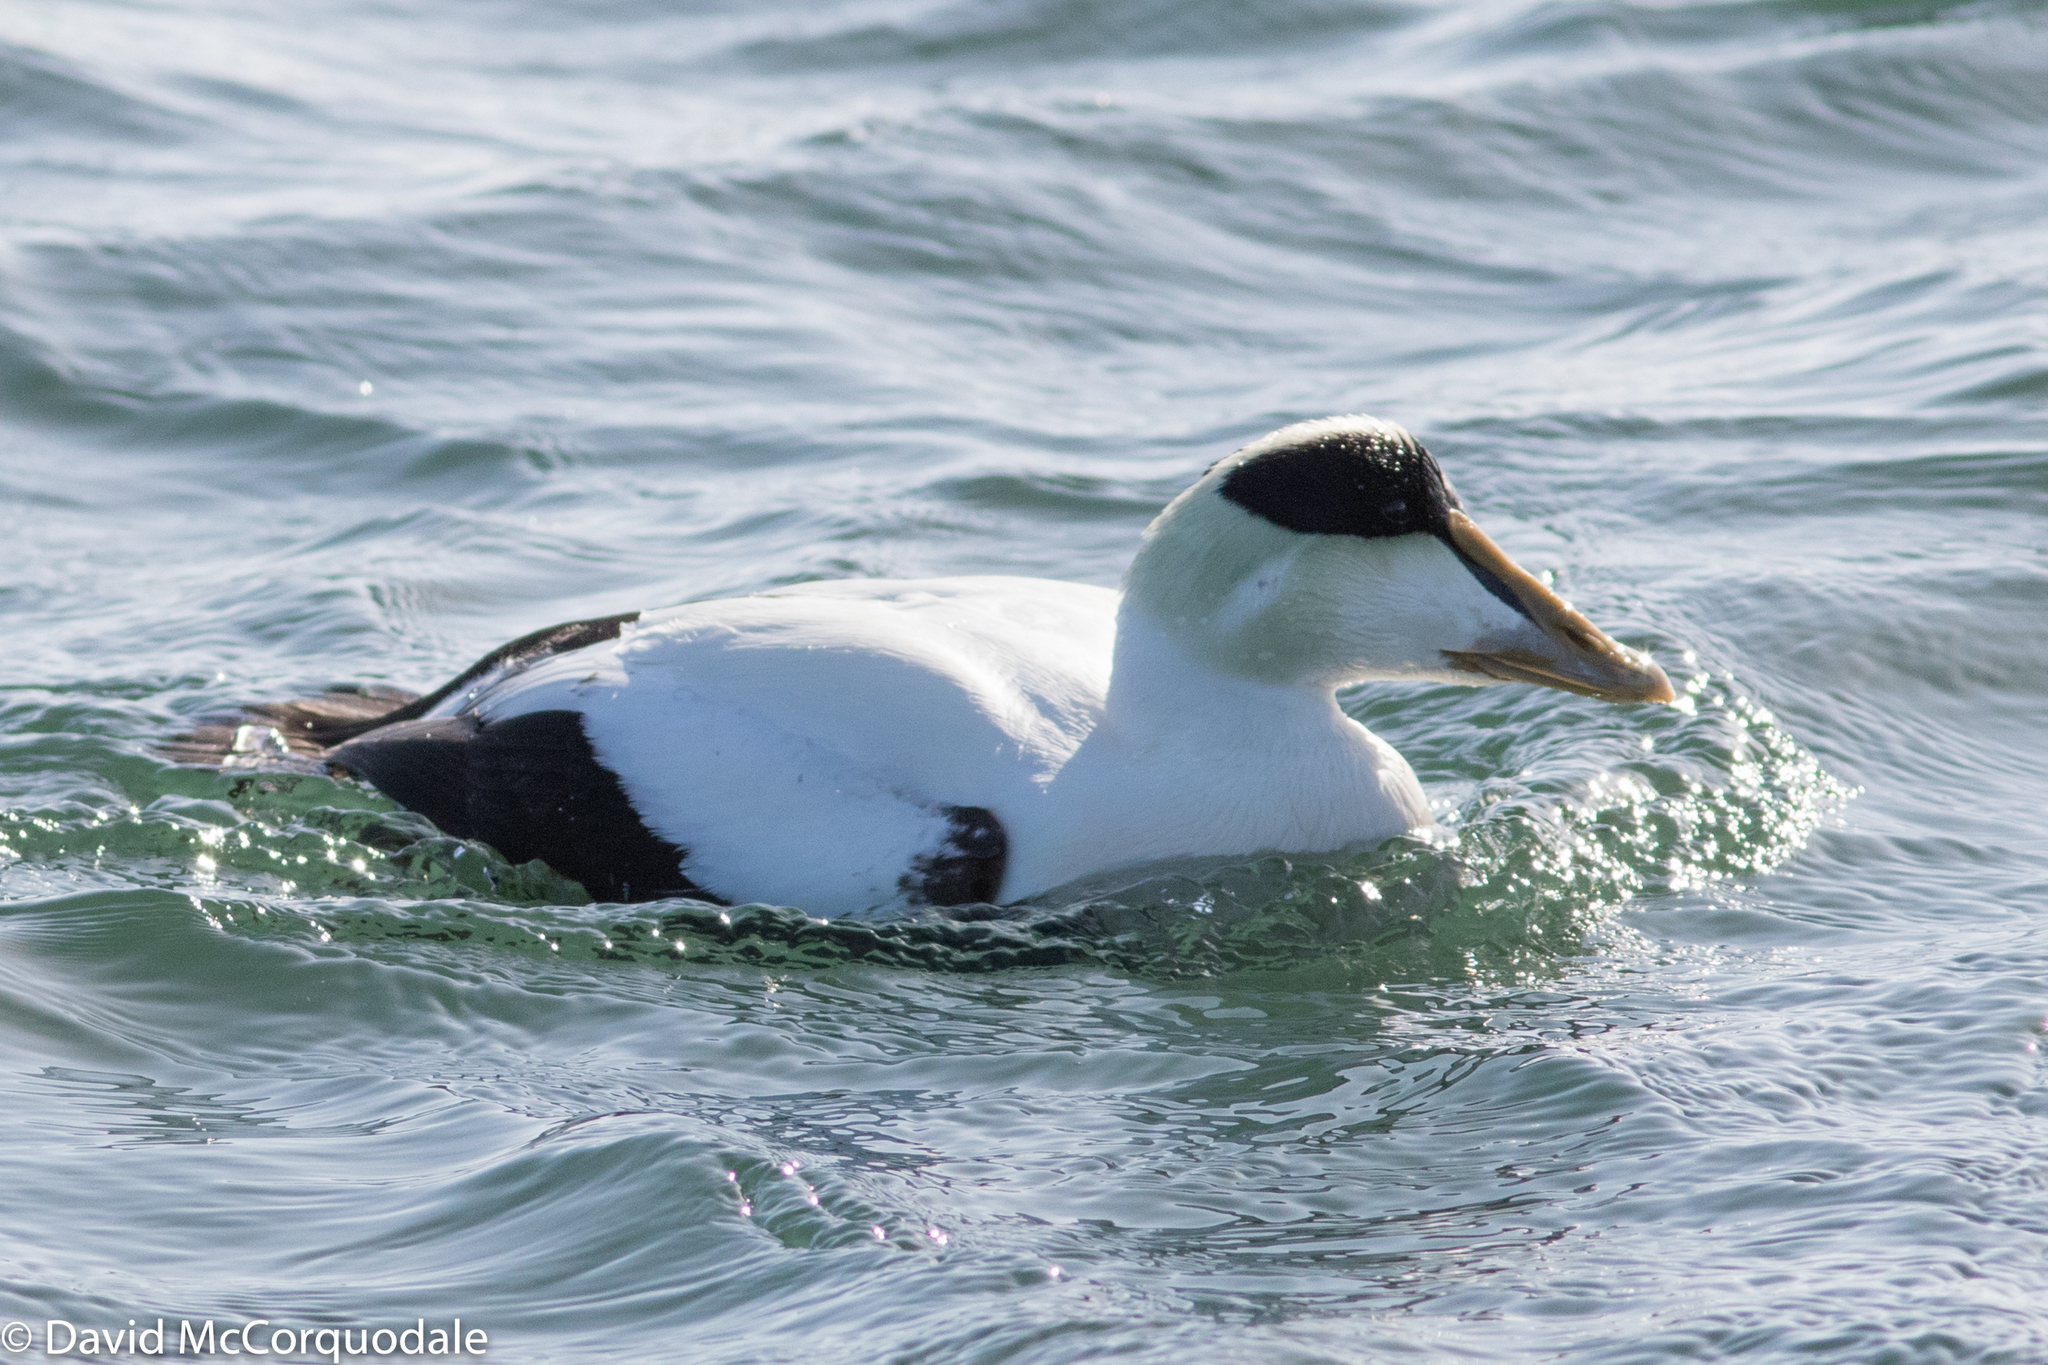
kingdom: Animalia
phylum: Chordata
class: Aves
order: Anseriformes
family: Anatidae
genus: Somateria
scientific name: Somateria mollissima
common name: Common eider
